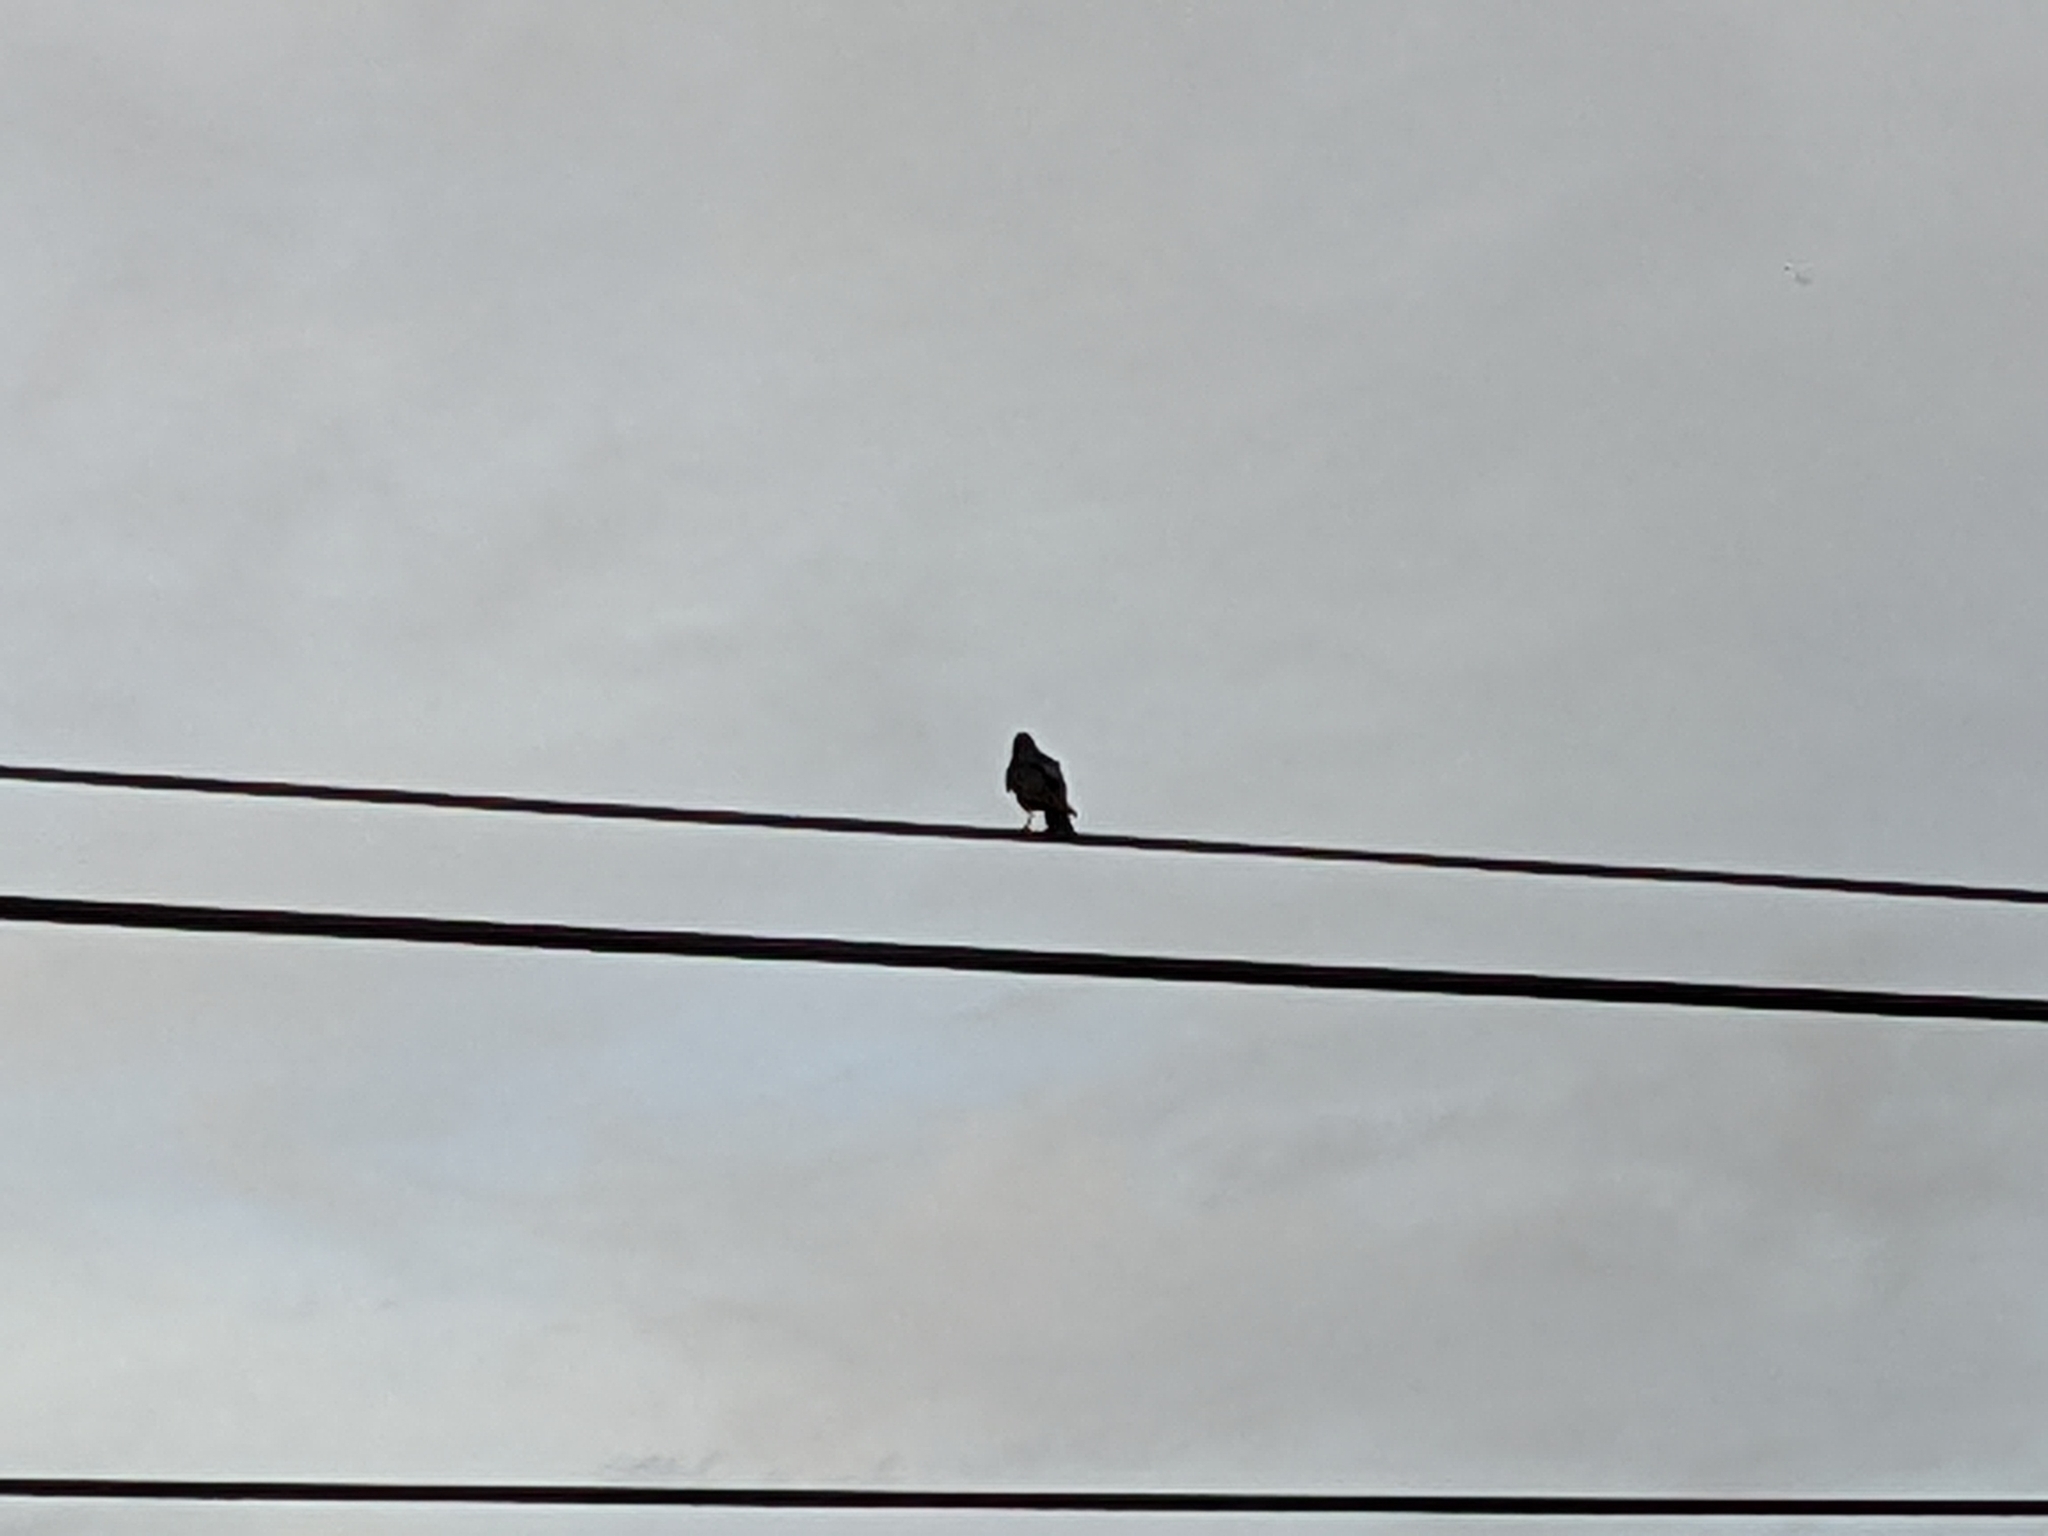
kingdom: Animalia
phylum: Chordata
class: Aves
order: Passeriformes
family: Corvidae
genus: Corvus
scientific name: Corvus brachyrhynchos
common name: American crow
